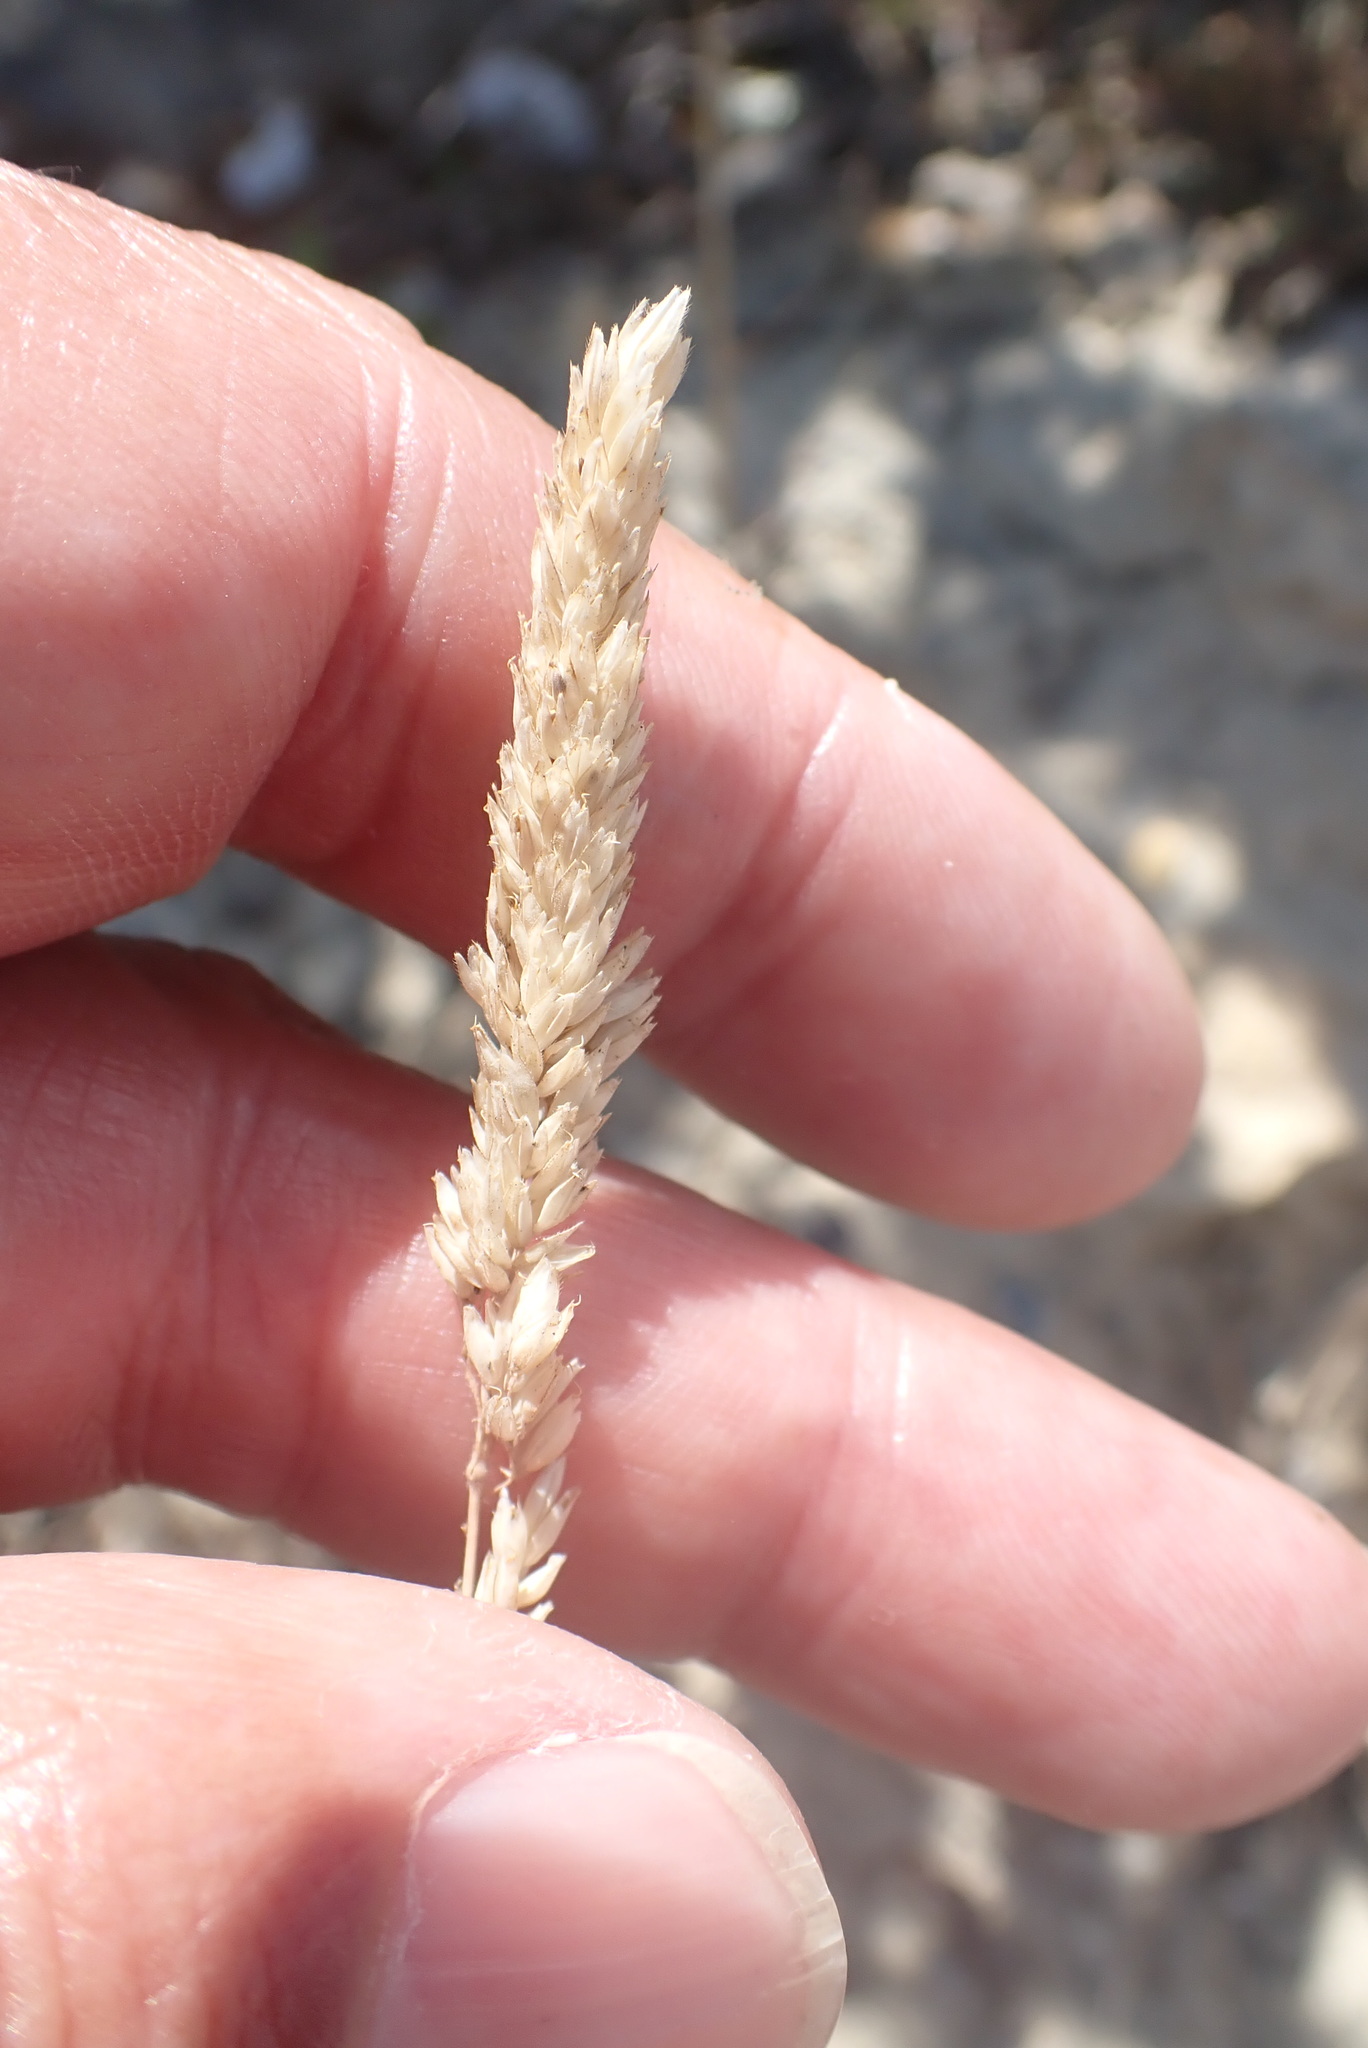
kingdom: Plantae
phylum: Tracheophyta
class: Liliopsida
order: Poales
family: Poaceae
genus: Holcus
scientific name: Holcus lanatus
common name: Yorkshire-fog
